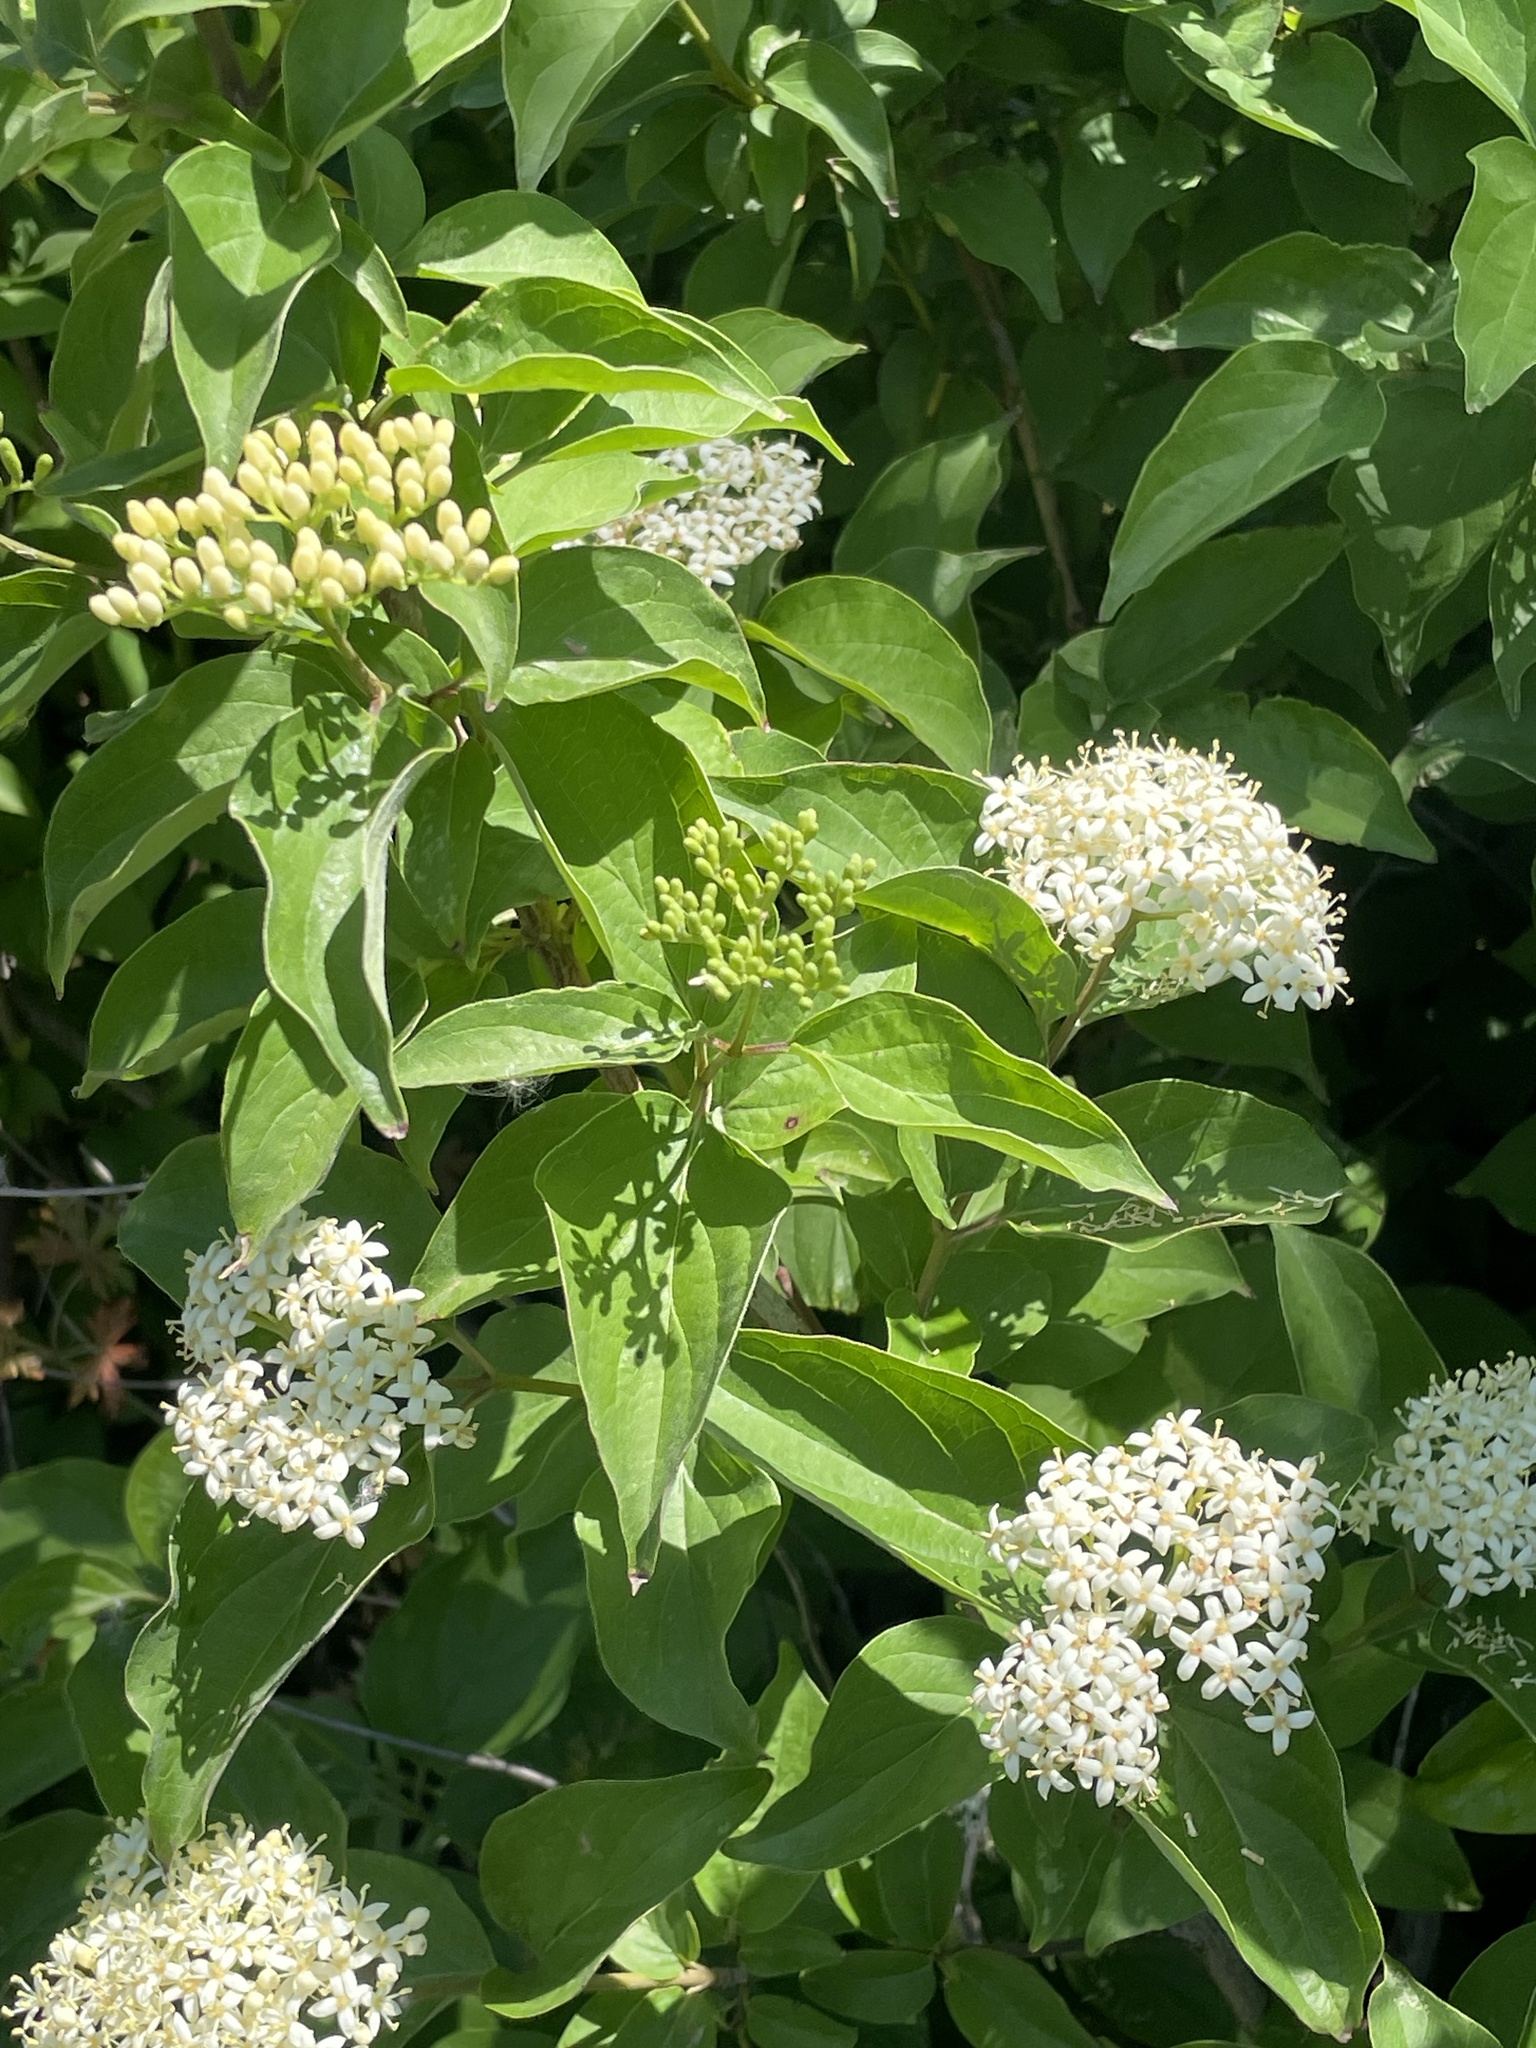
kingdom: Plantae
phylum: Tracheophyta
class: Magnoliopsida
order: Cornales
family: Cornaceae
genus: Cornus
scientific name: Cornus drummondii
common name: Rough-leaf dogwood
